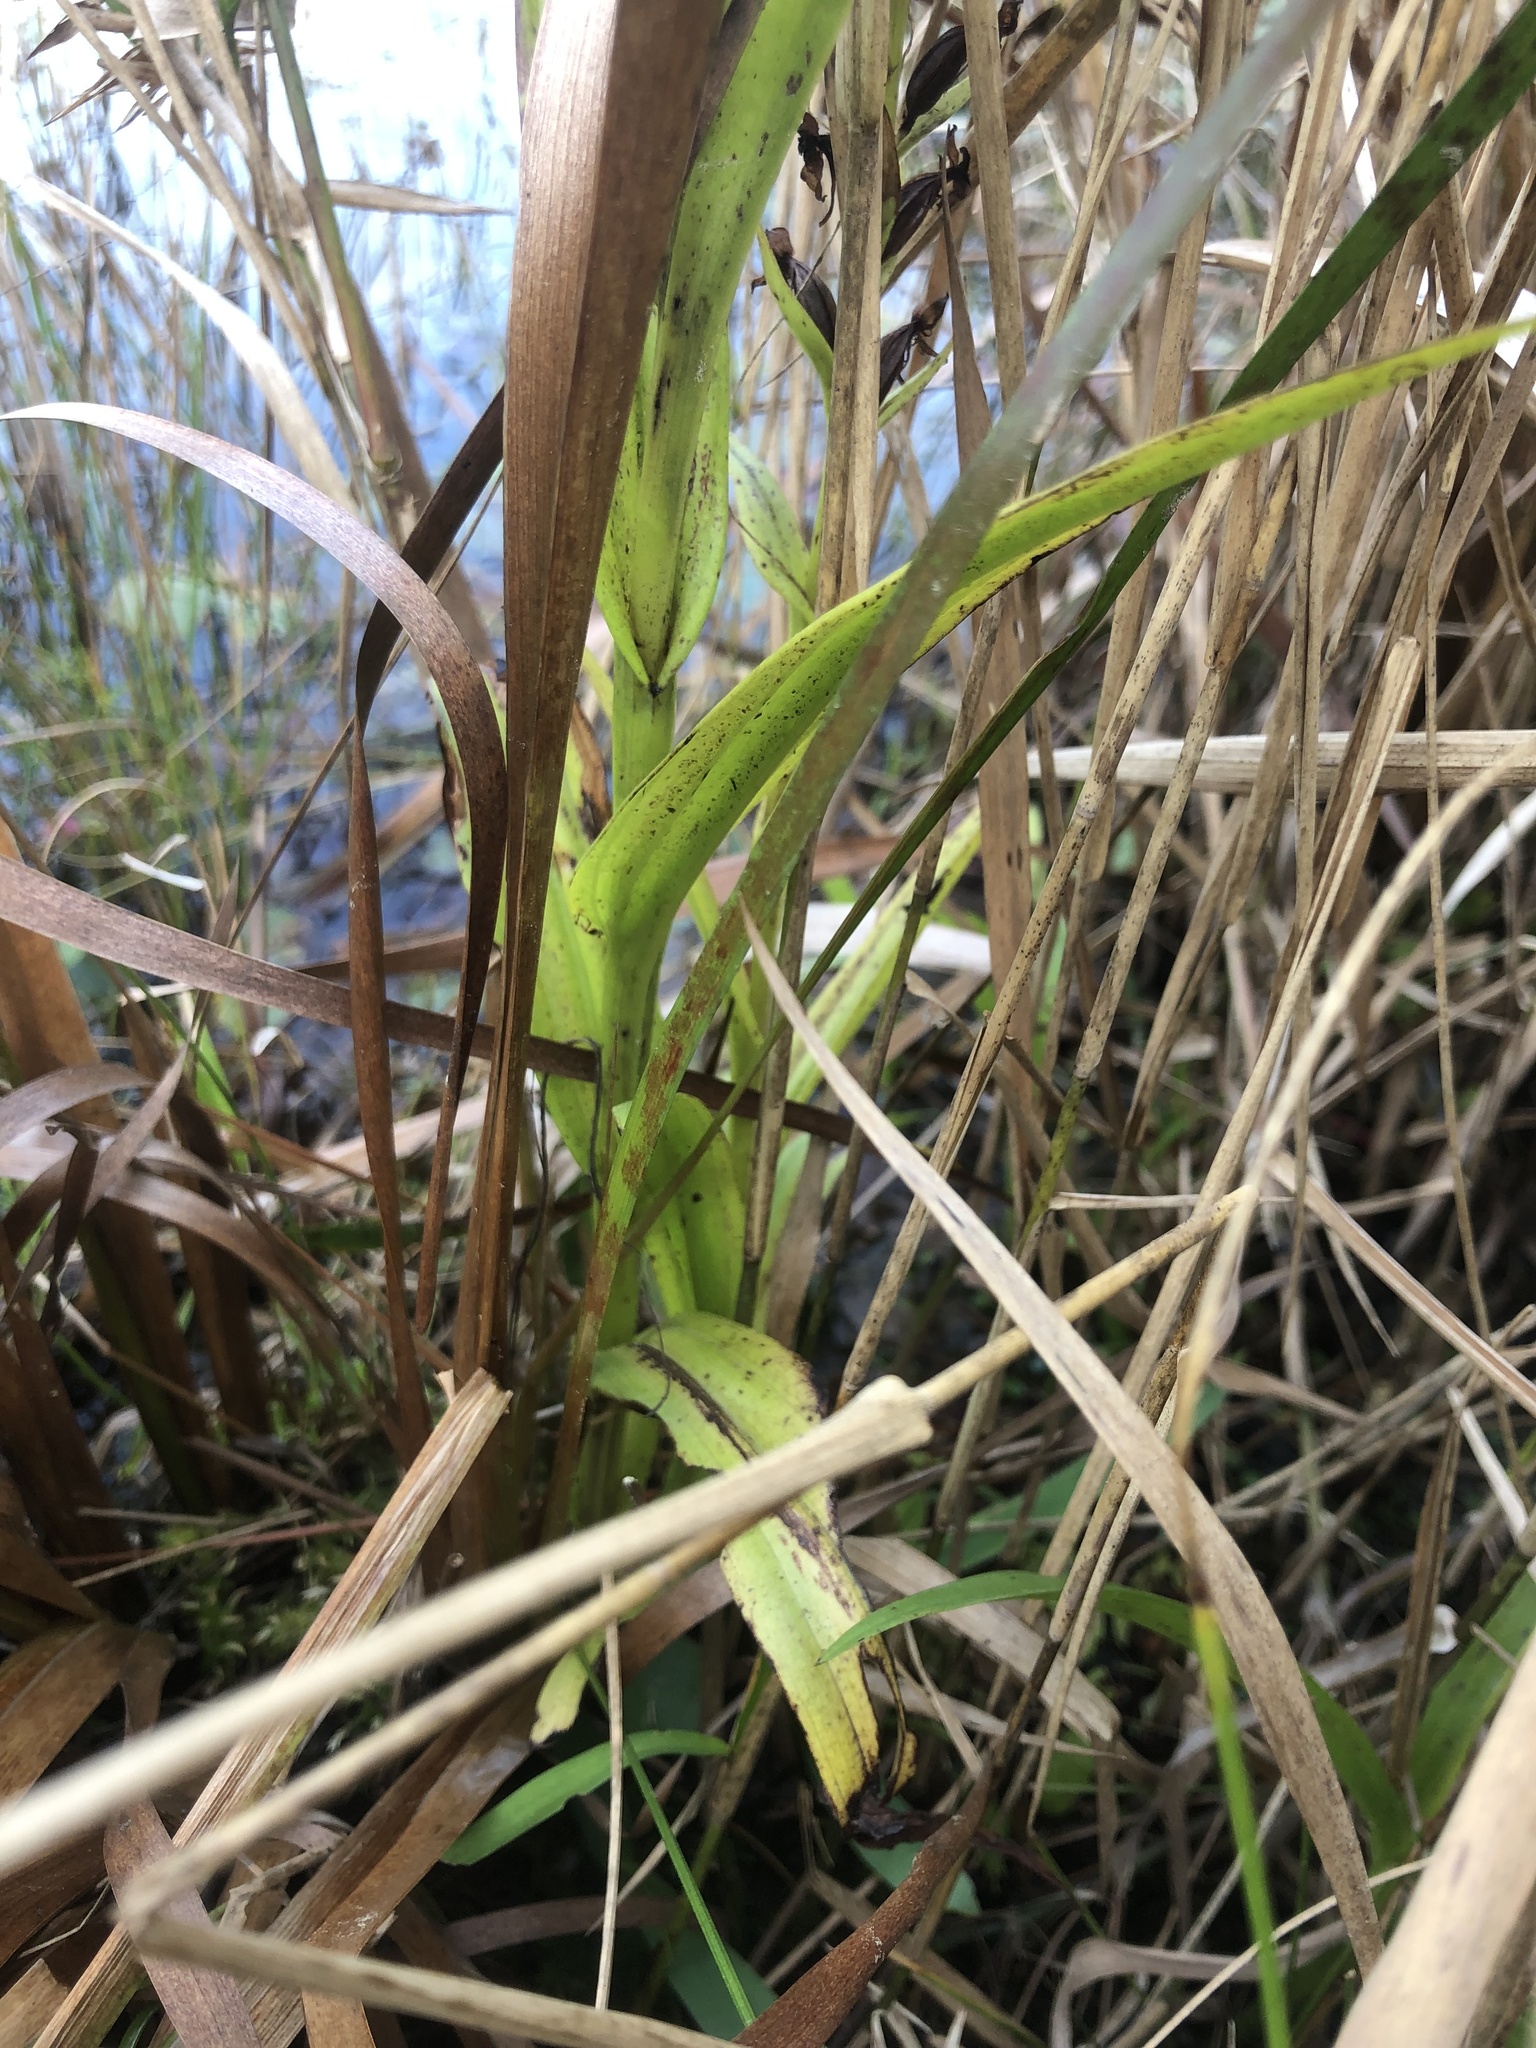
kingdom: Plantae
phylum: Tracheophyta
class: Liliopsida
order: Asparagales
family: Orchidaceae
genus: Habenaria
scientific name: Habenaria repens
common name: Water orchid
